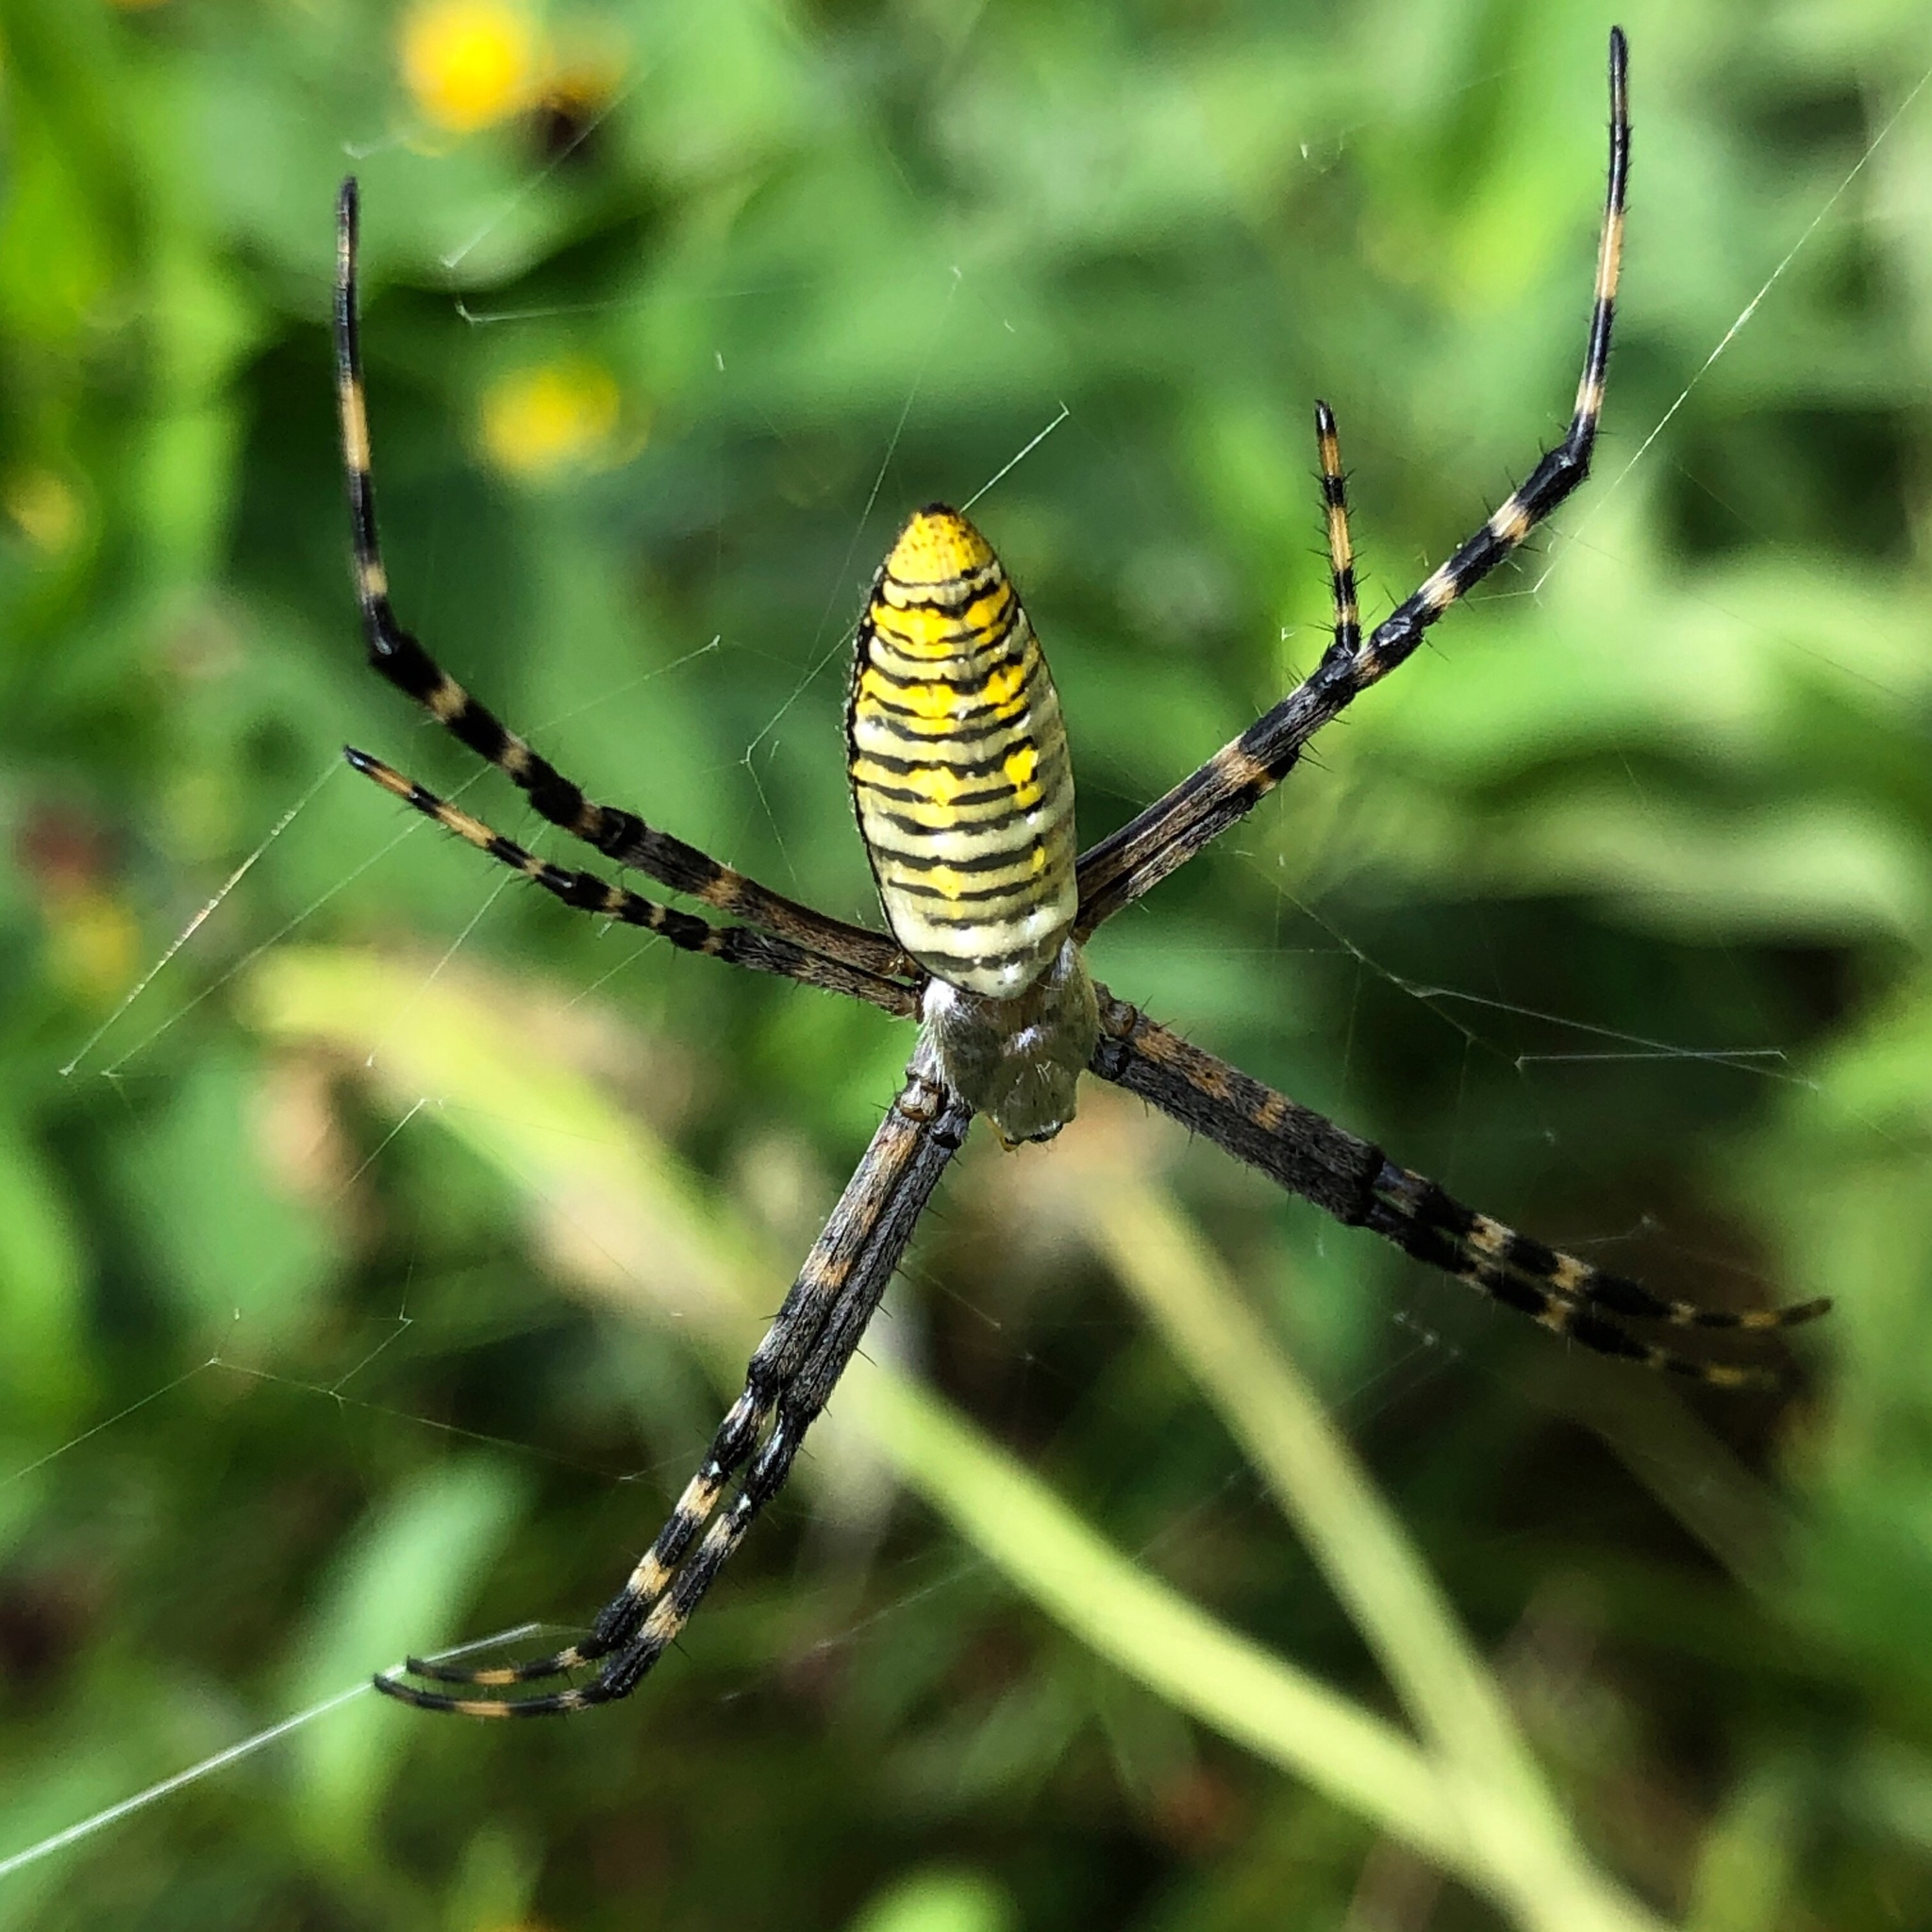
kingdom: Animalia
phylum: Arthropoda
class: Arachnida
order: Araneae
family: Araneidae
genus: Argiope
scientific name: Argiope trifasciata
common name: Banded garden spider
